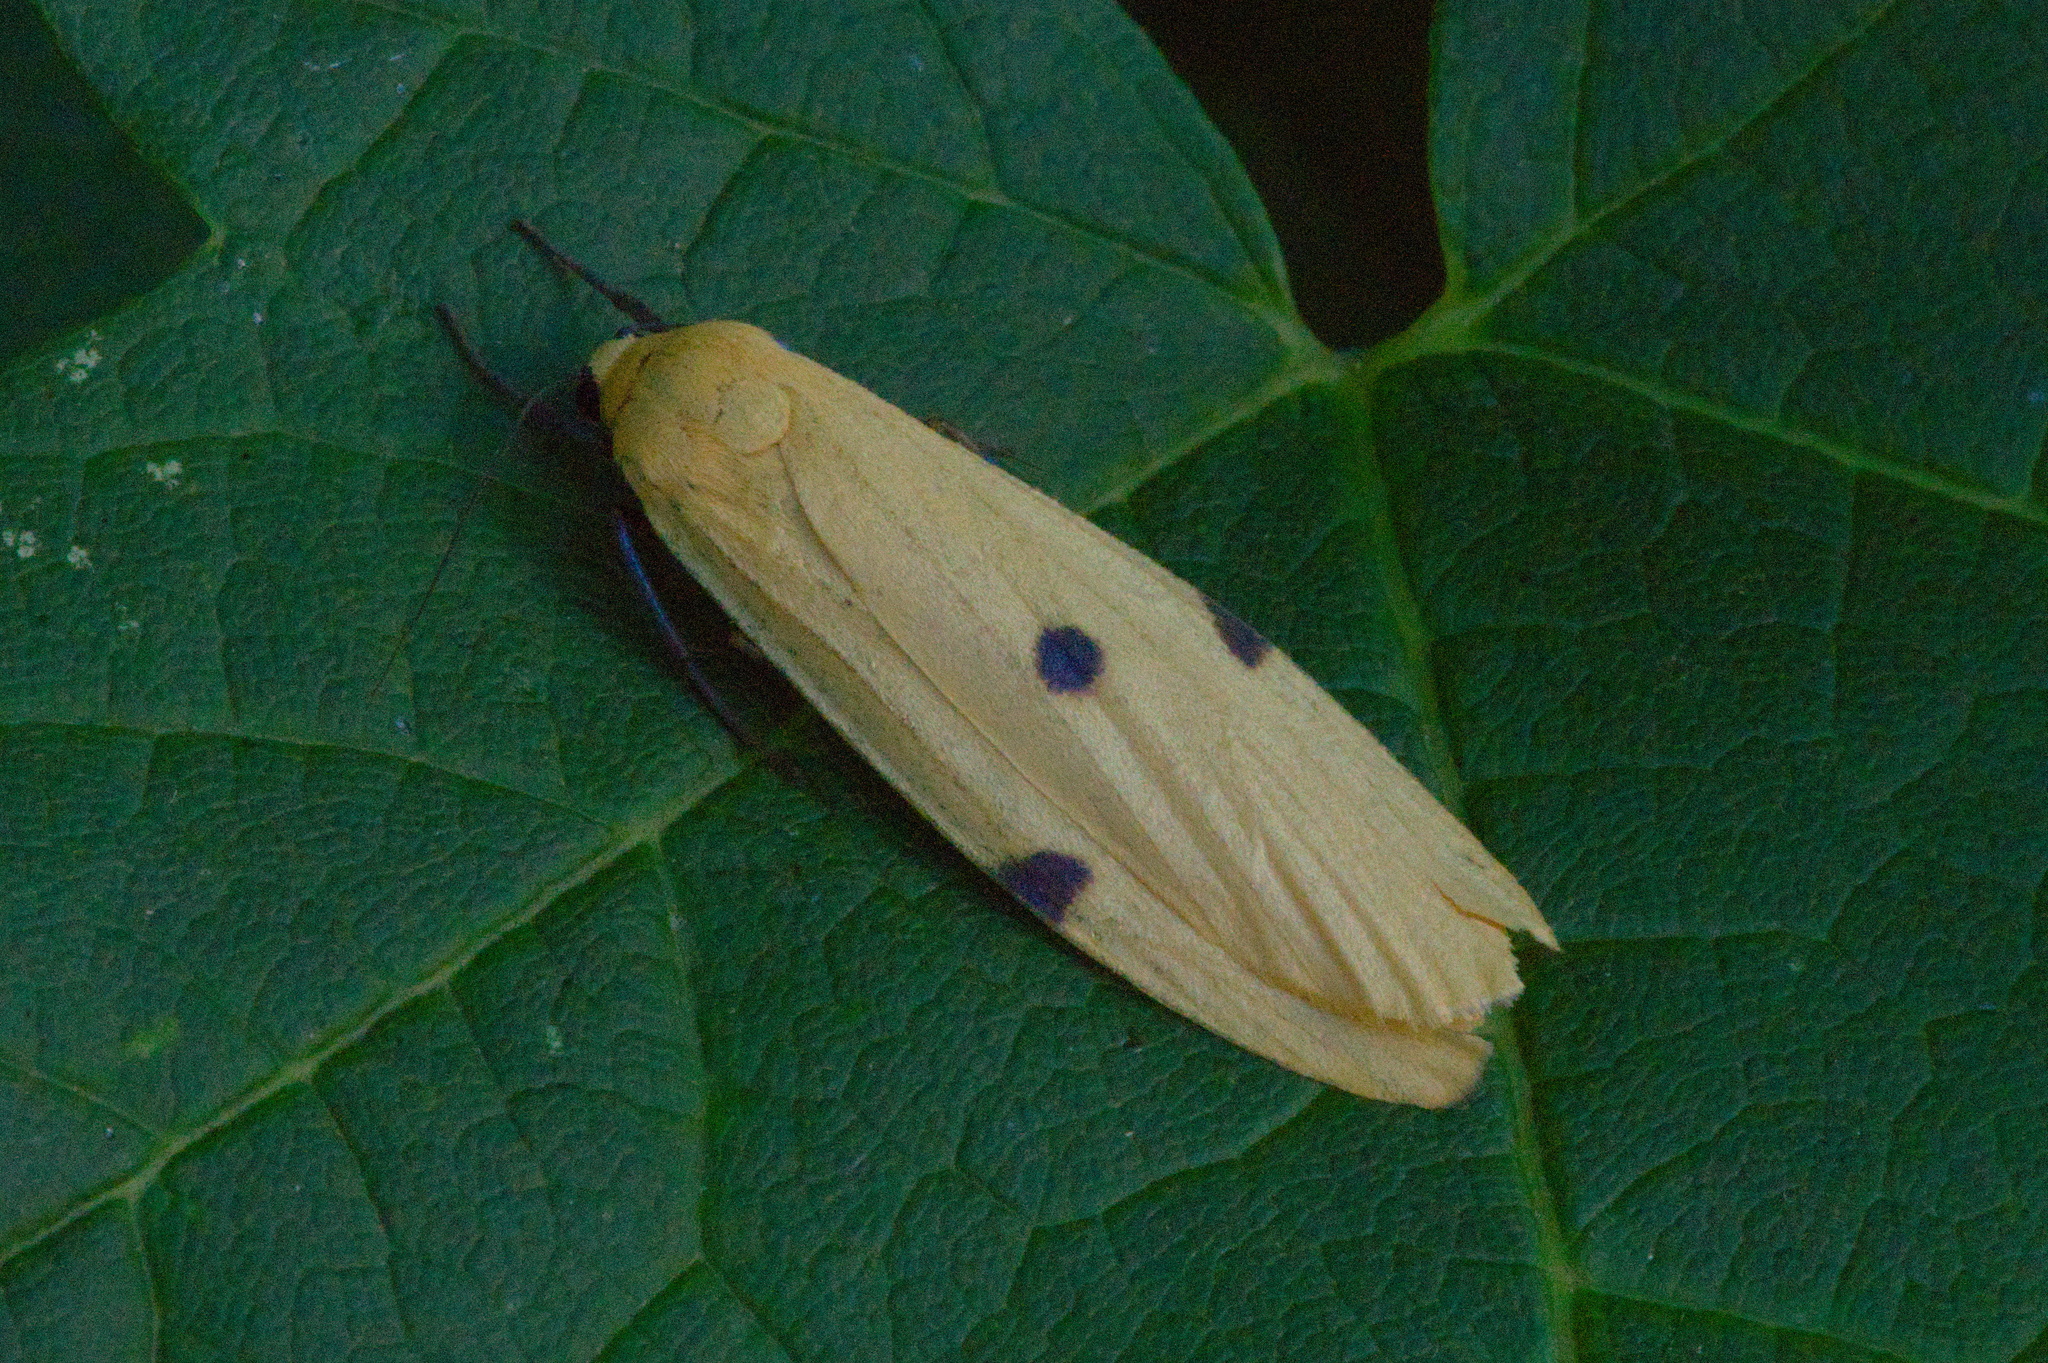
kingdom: Animalia
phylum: Arthropoda
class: Insecta
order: Lepidoptera
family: Erebidae
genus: Lithosia
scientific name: Lithosia quadra
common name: Four-spotted footman
